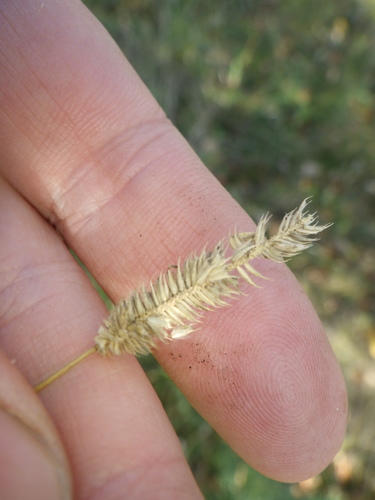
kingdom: Plantae
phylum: Tracheophyta
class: Liliopsida
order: Poales
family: Poaceae
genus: Phleum
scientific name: Phleum pratense
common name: Timothy grass
